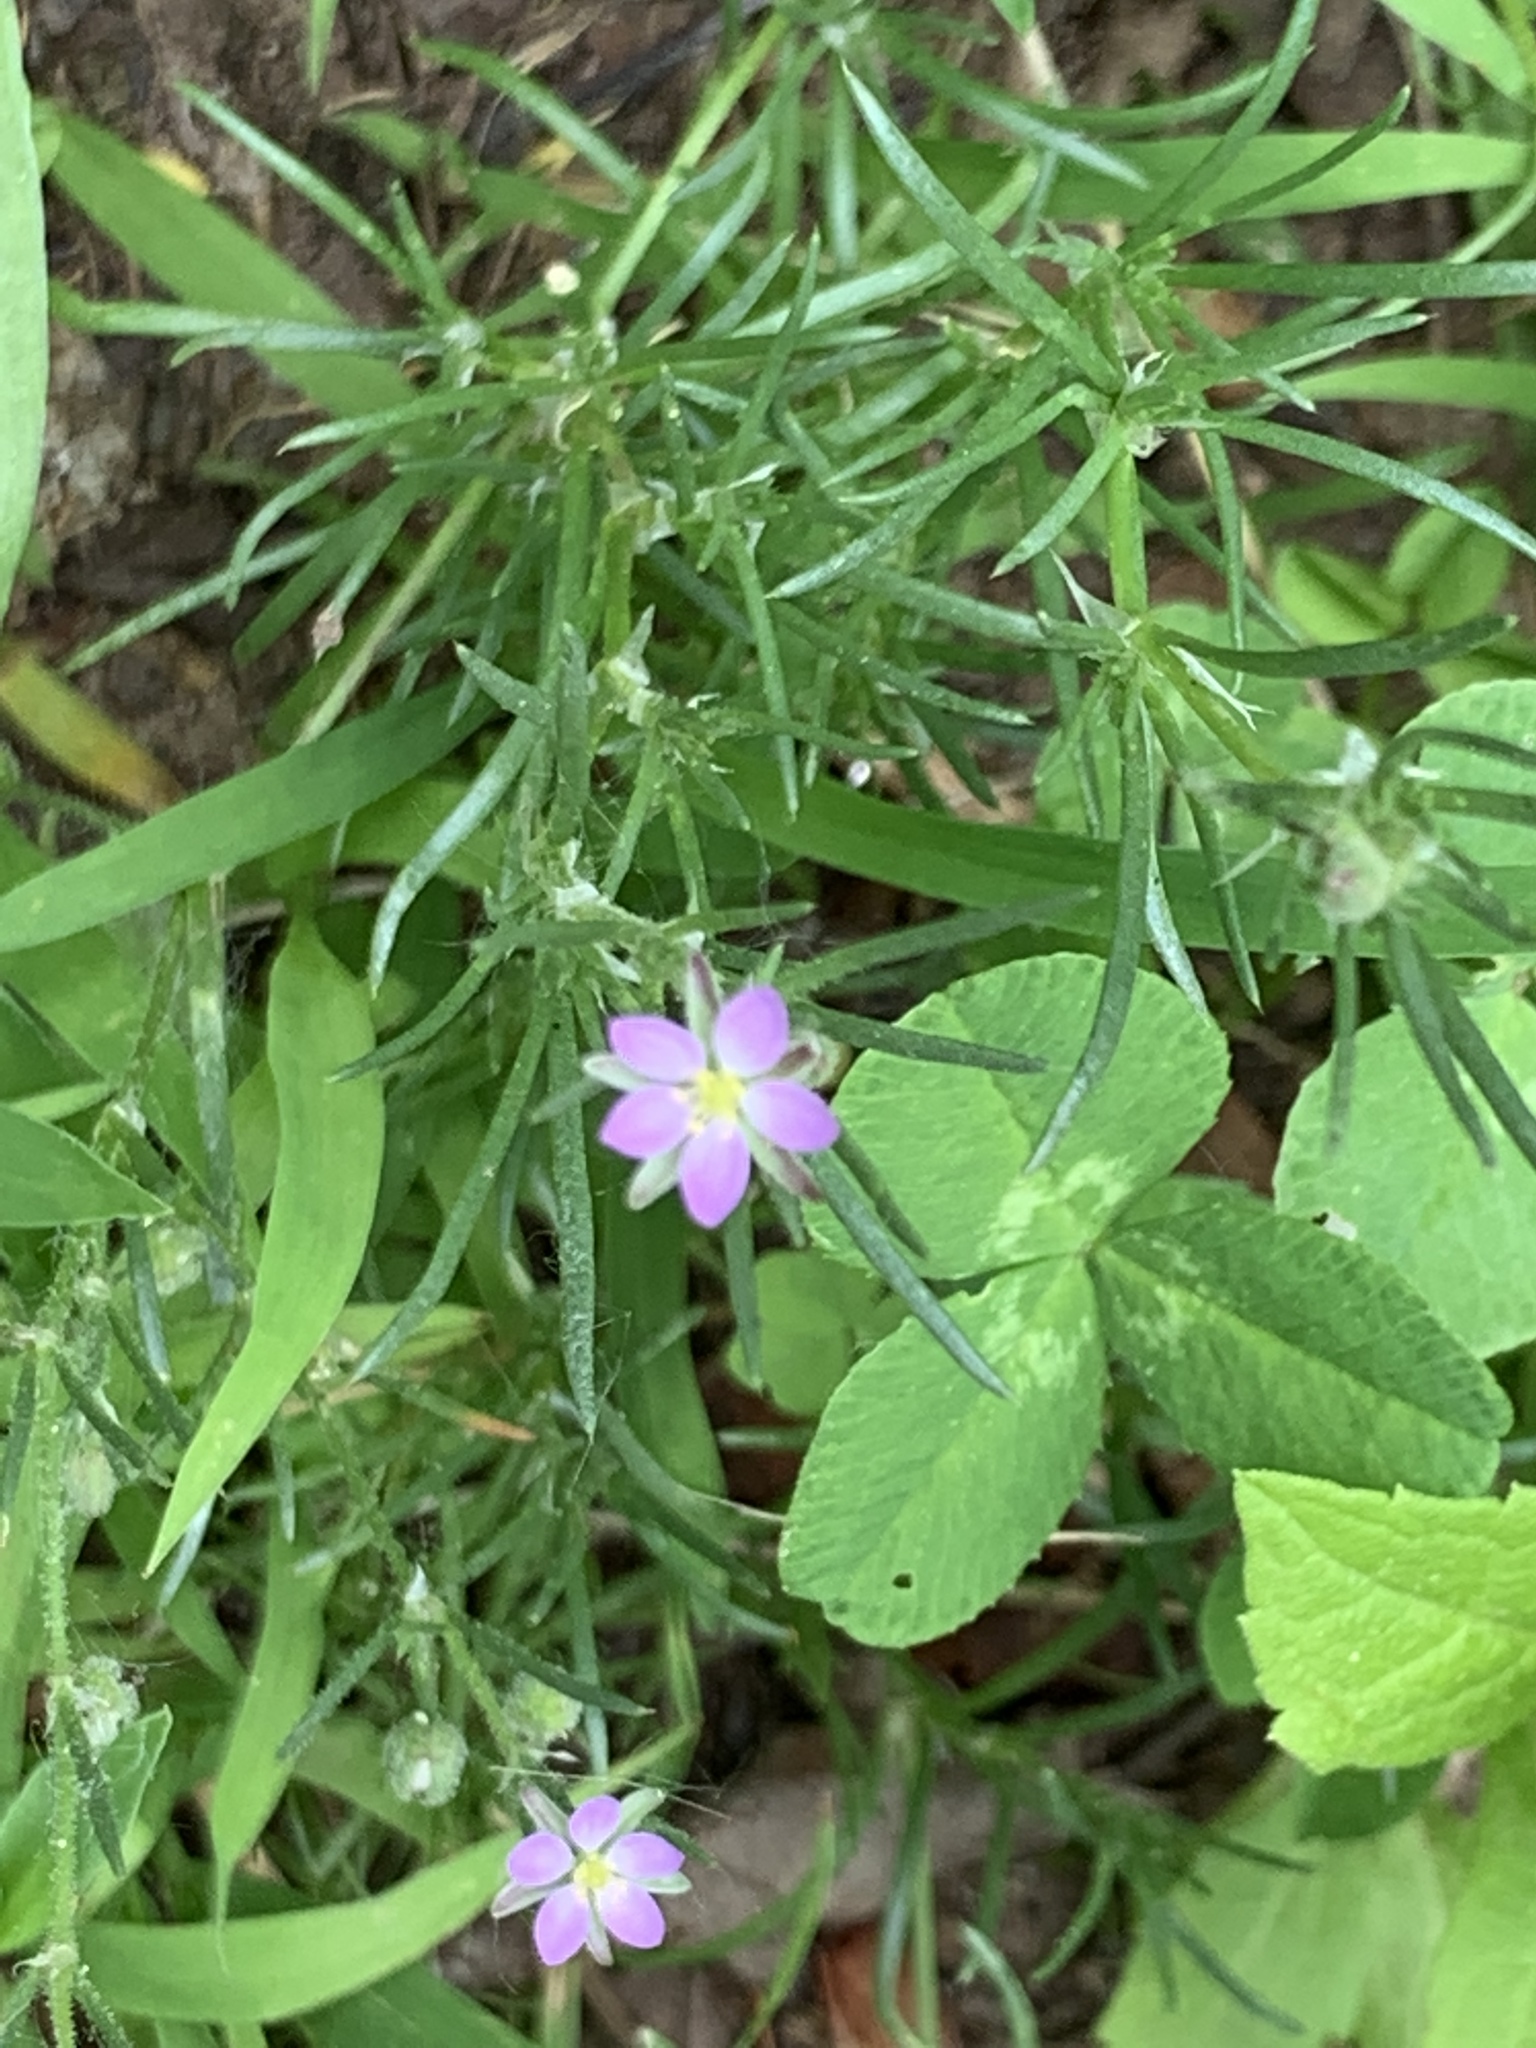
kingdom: Plantae
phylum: Tracheophyta
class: Magnoliopsida
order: Caryophyllales
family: Caryophyllaceae
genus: Spergularia
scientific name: Spergularia rubra
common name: Red sand-spurrey
